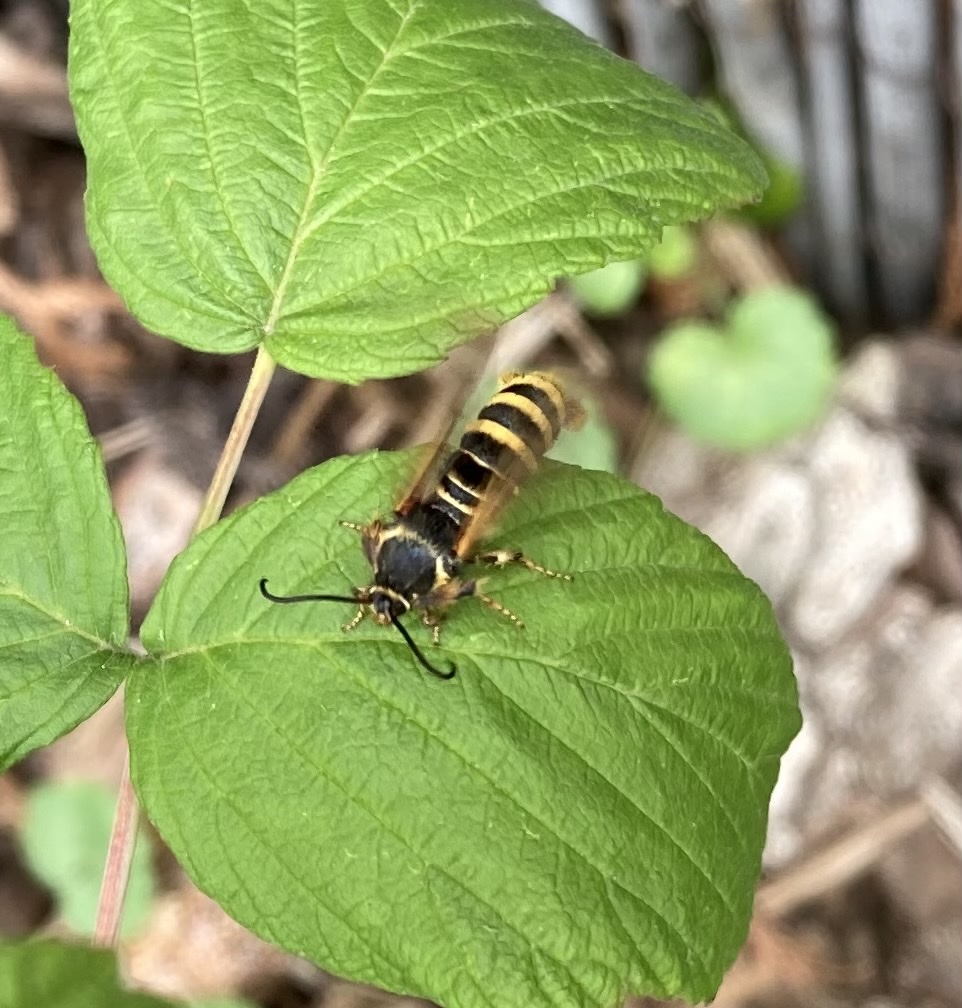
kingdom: Animalia
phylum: Arthropoda
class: Insecta
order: Lepidoptera
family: Sesiidae
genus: Pennisetia
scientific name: Pennisetia hylaeiformis
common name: Raspberry clearwing
